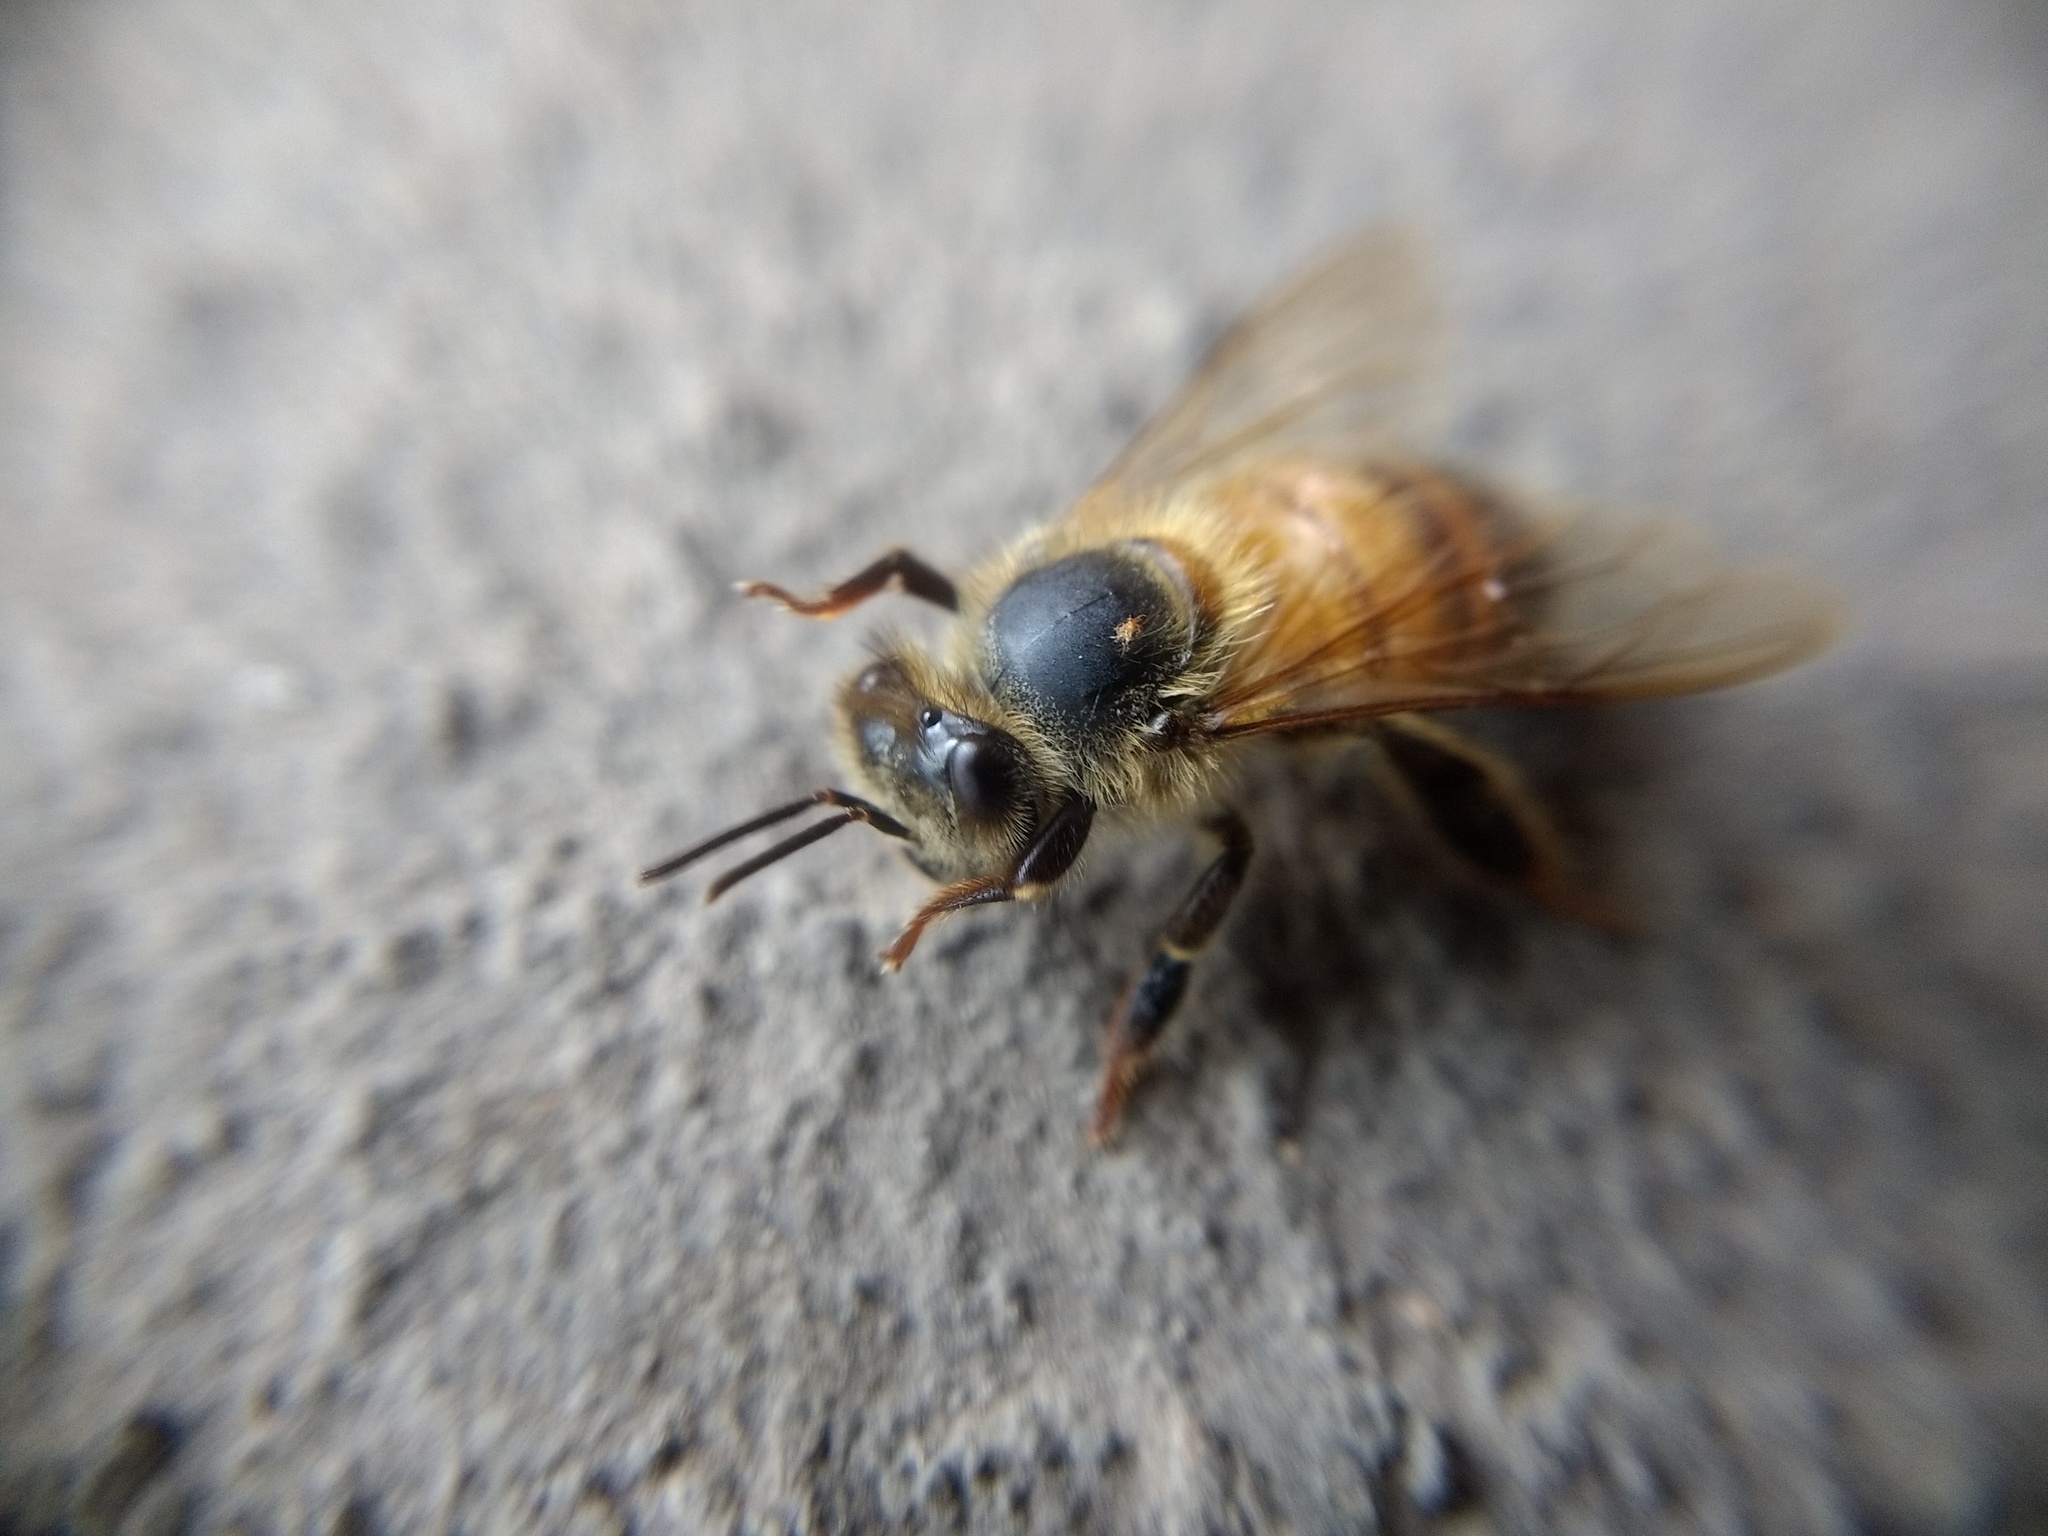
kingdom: Animalia
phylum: Arthropoda
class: Insecta
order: Hymenoptera
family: Apidae
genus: Apis
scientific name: Apis mellifera
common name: Honey bee
